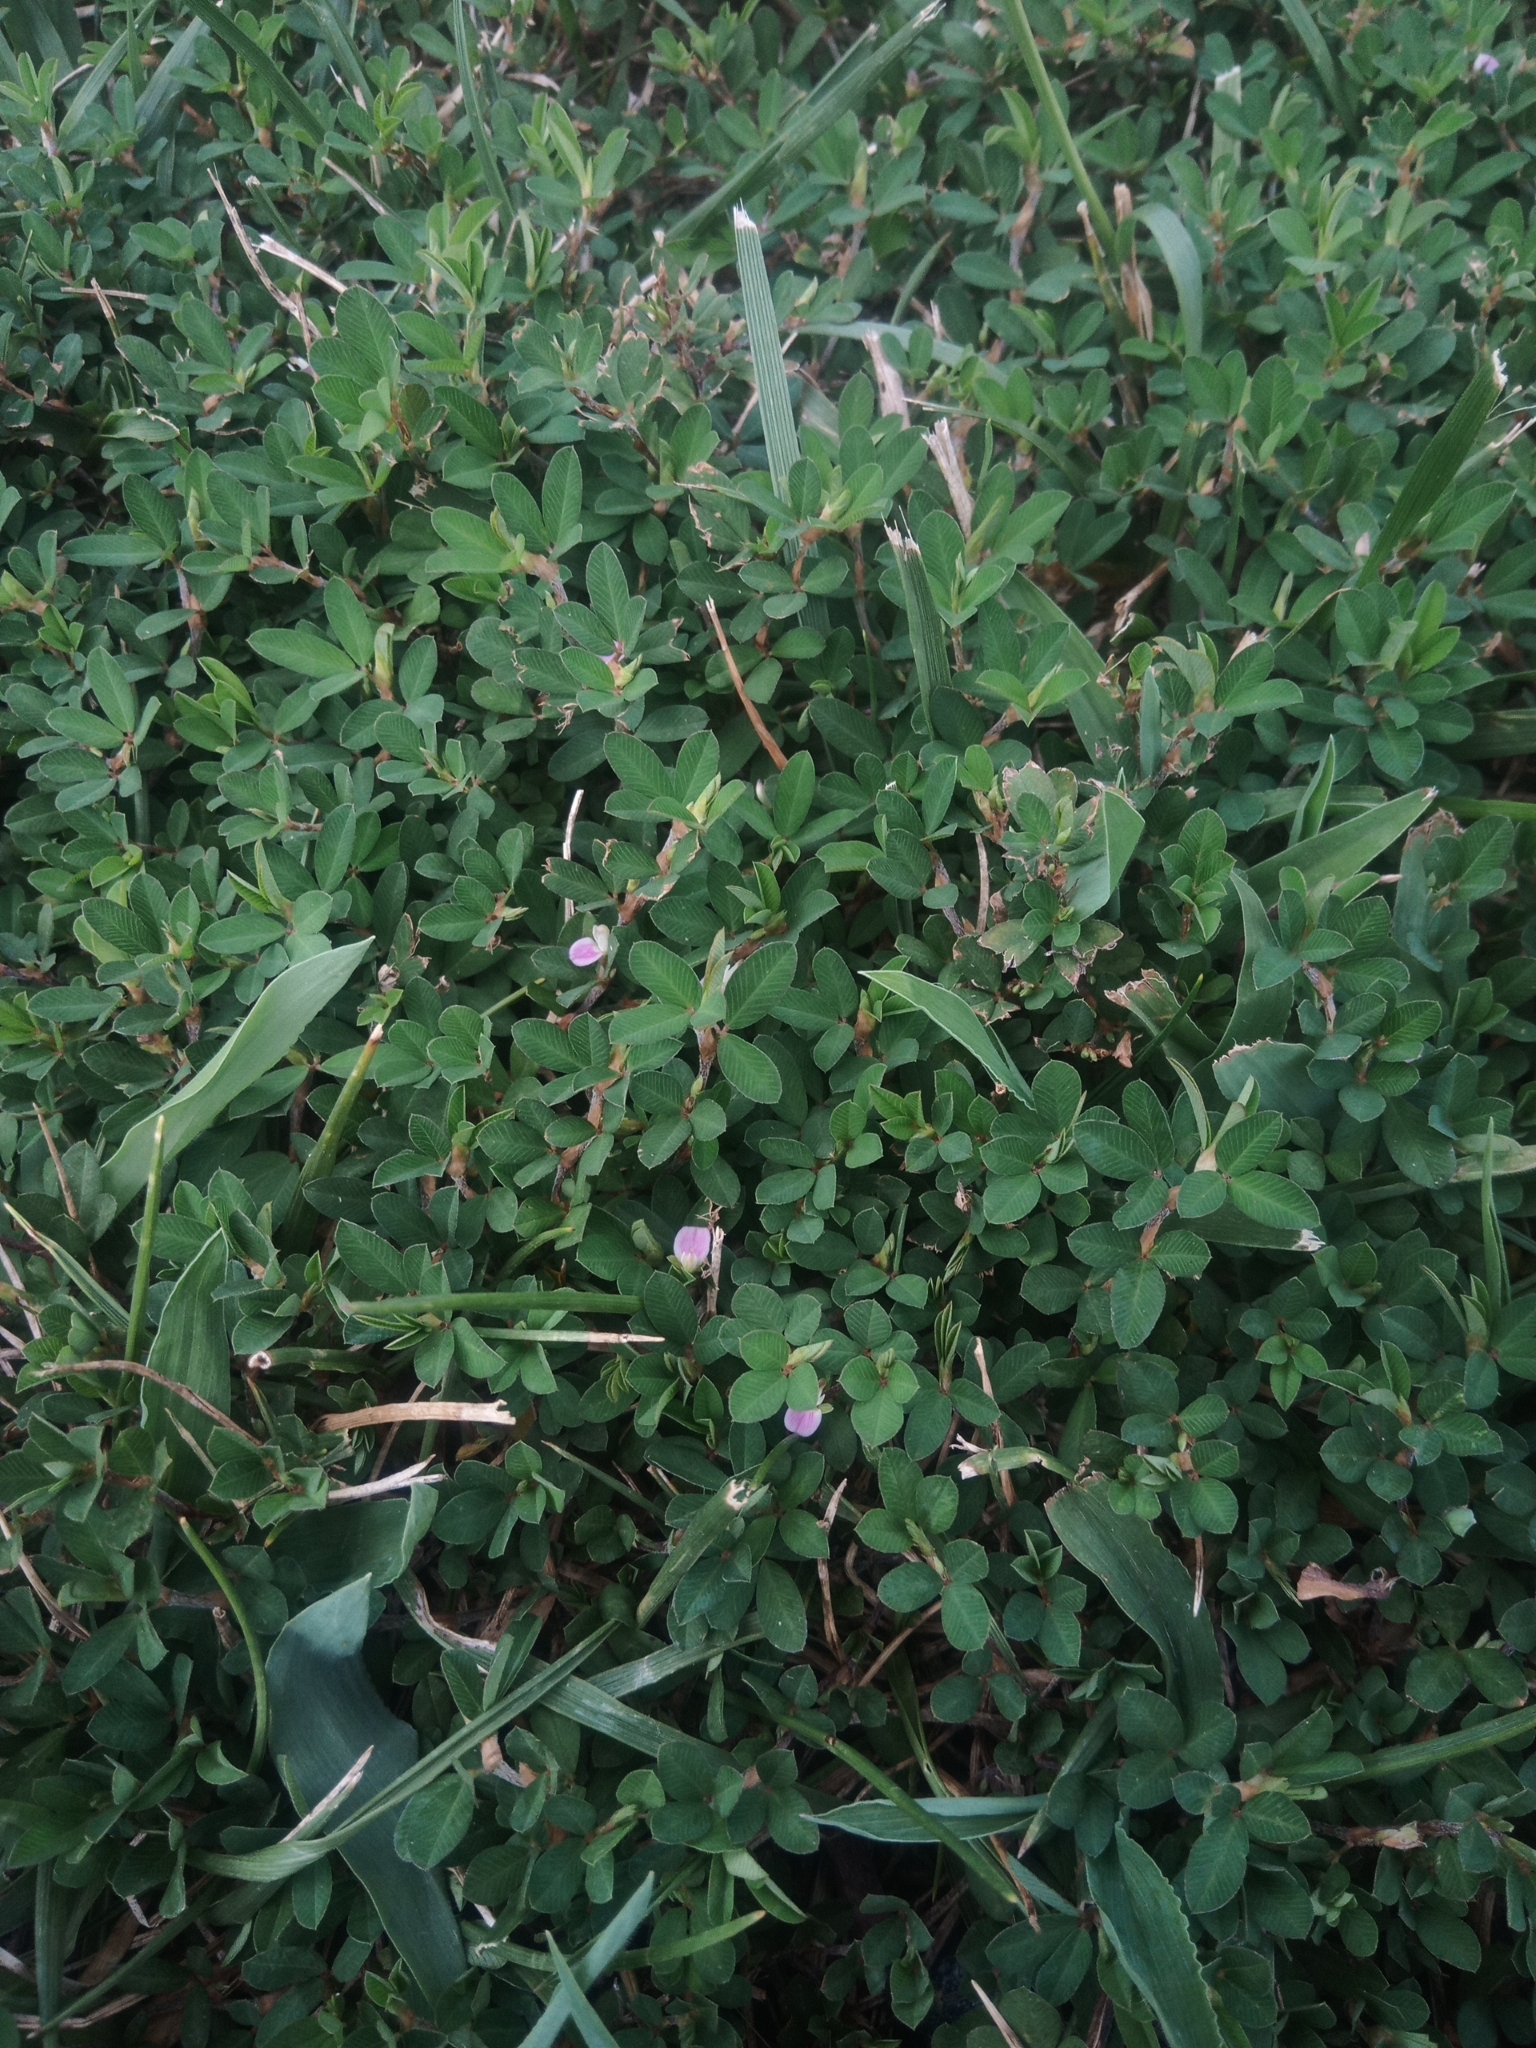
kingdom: Plantae
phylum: Tracheophyta
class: Magnoliopsida
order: Fabales
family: Fabaceae
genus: Kummerowia
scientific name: Kummerowia striata
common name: Japanese clover
